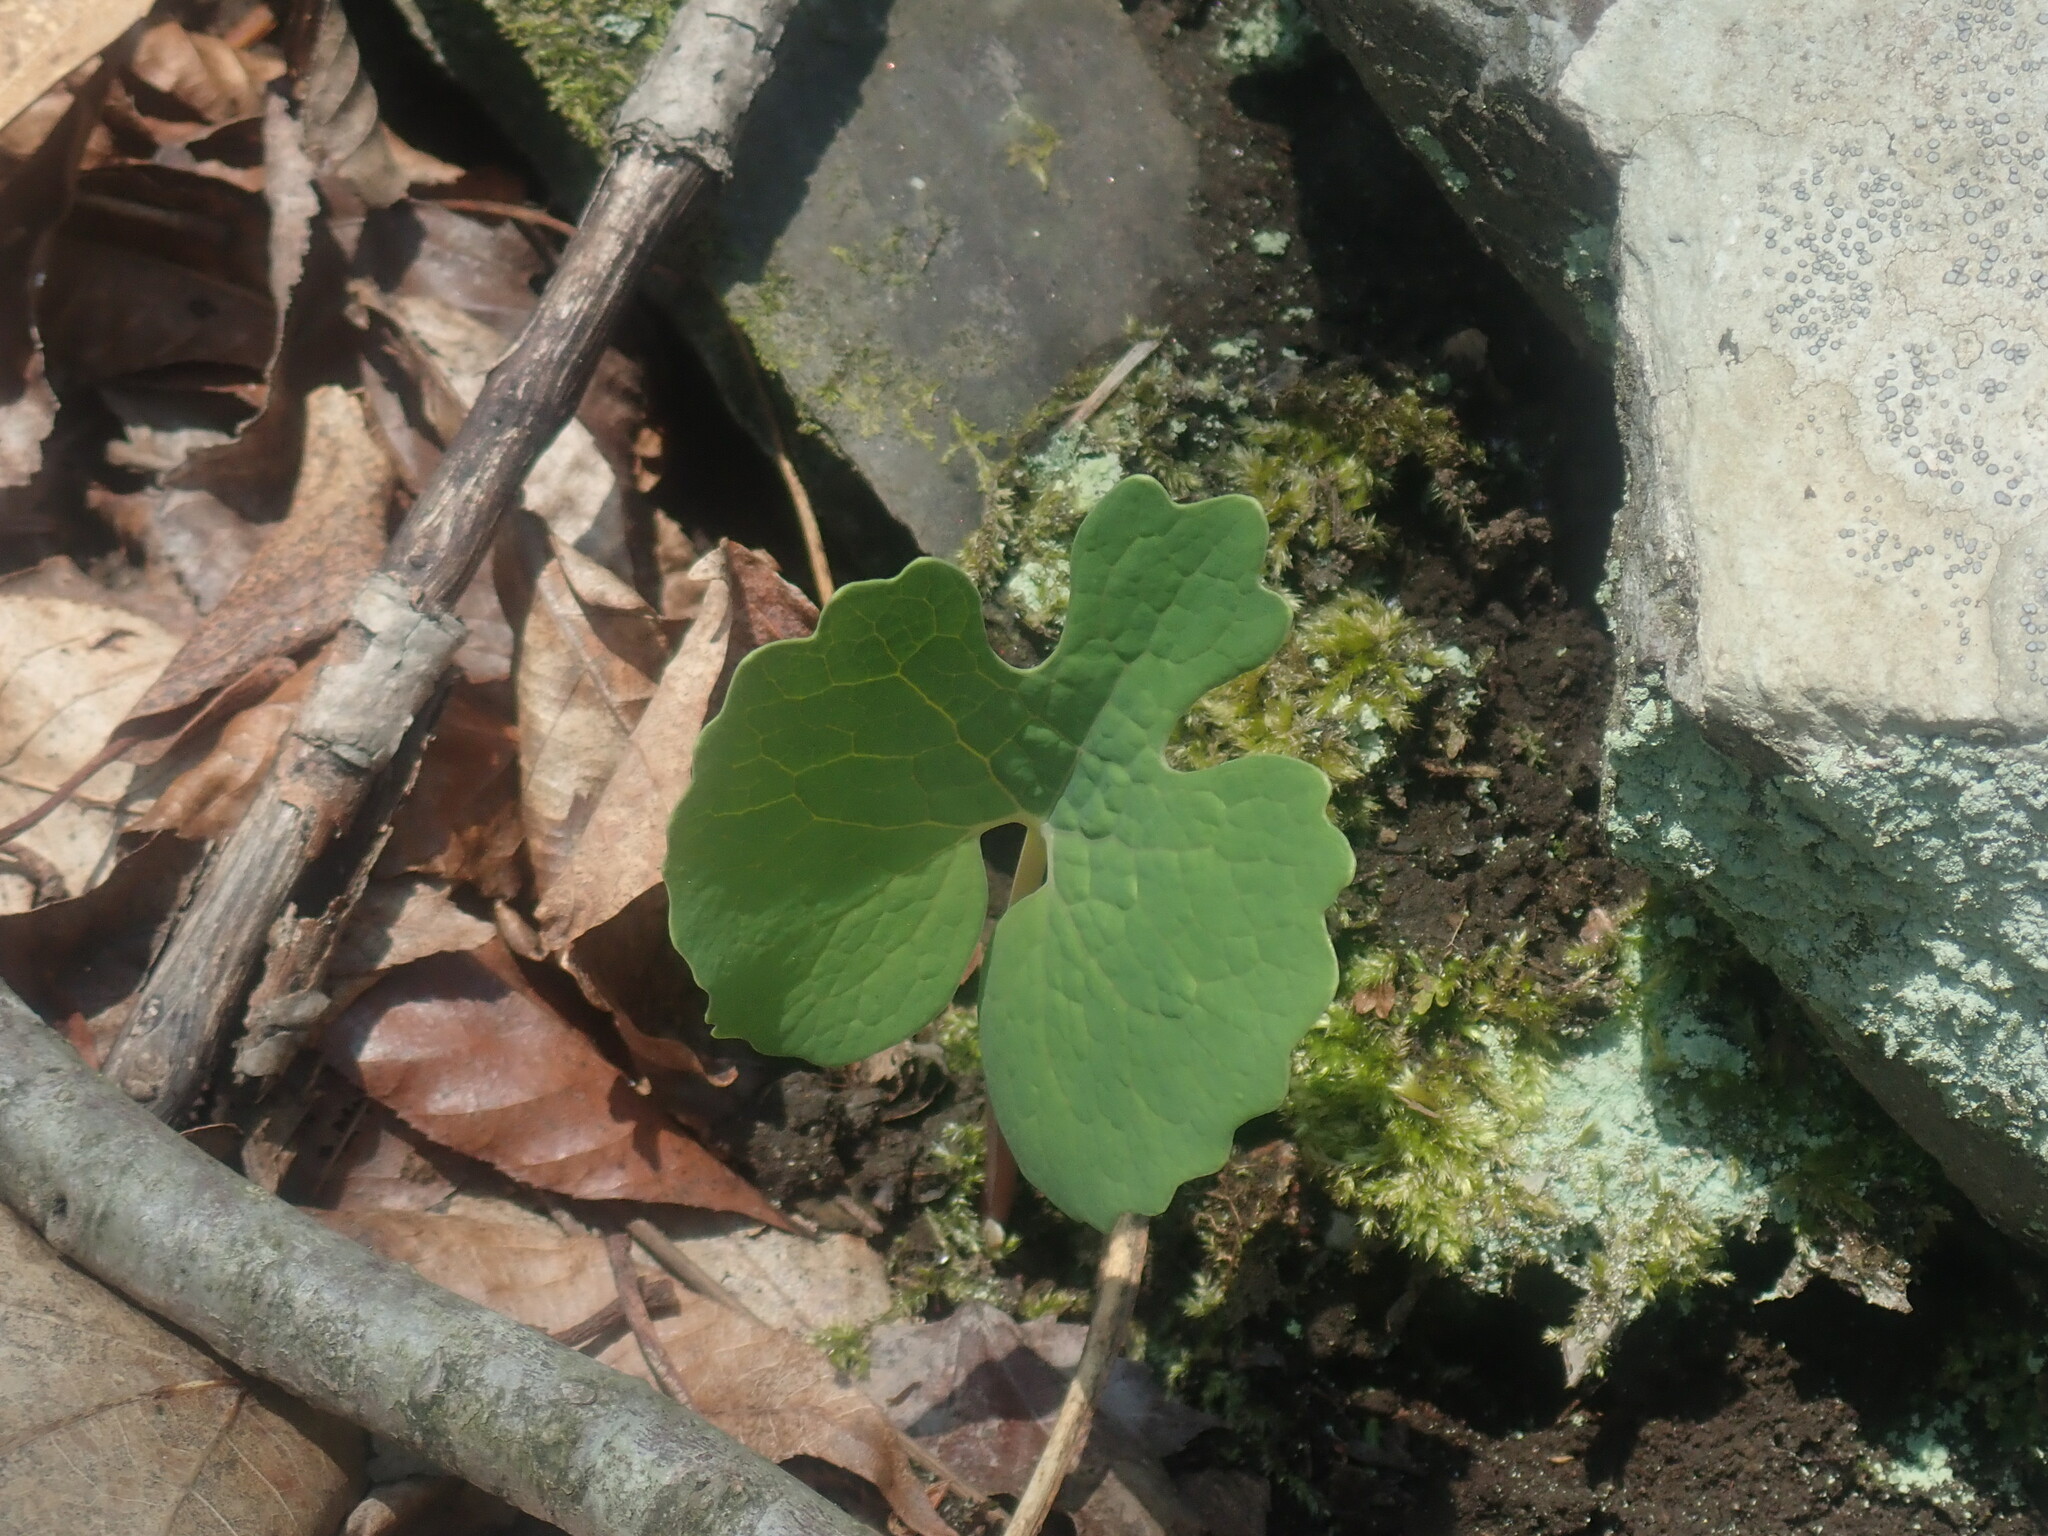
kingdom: Plantae
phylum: Tracheophyta
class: Magnoliopsida
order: Ranunculales
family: Papaveraceae
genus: Sanguinaria
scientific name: Sanguinaria canadensis
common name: Bloodroot
